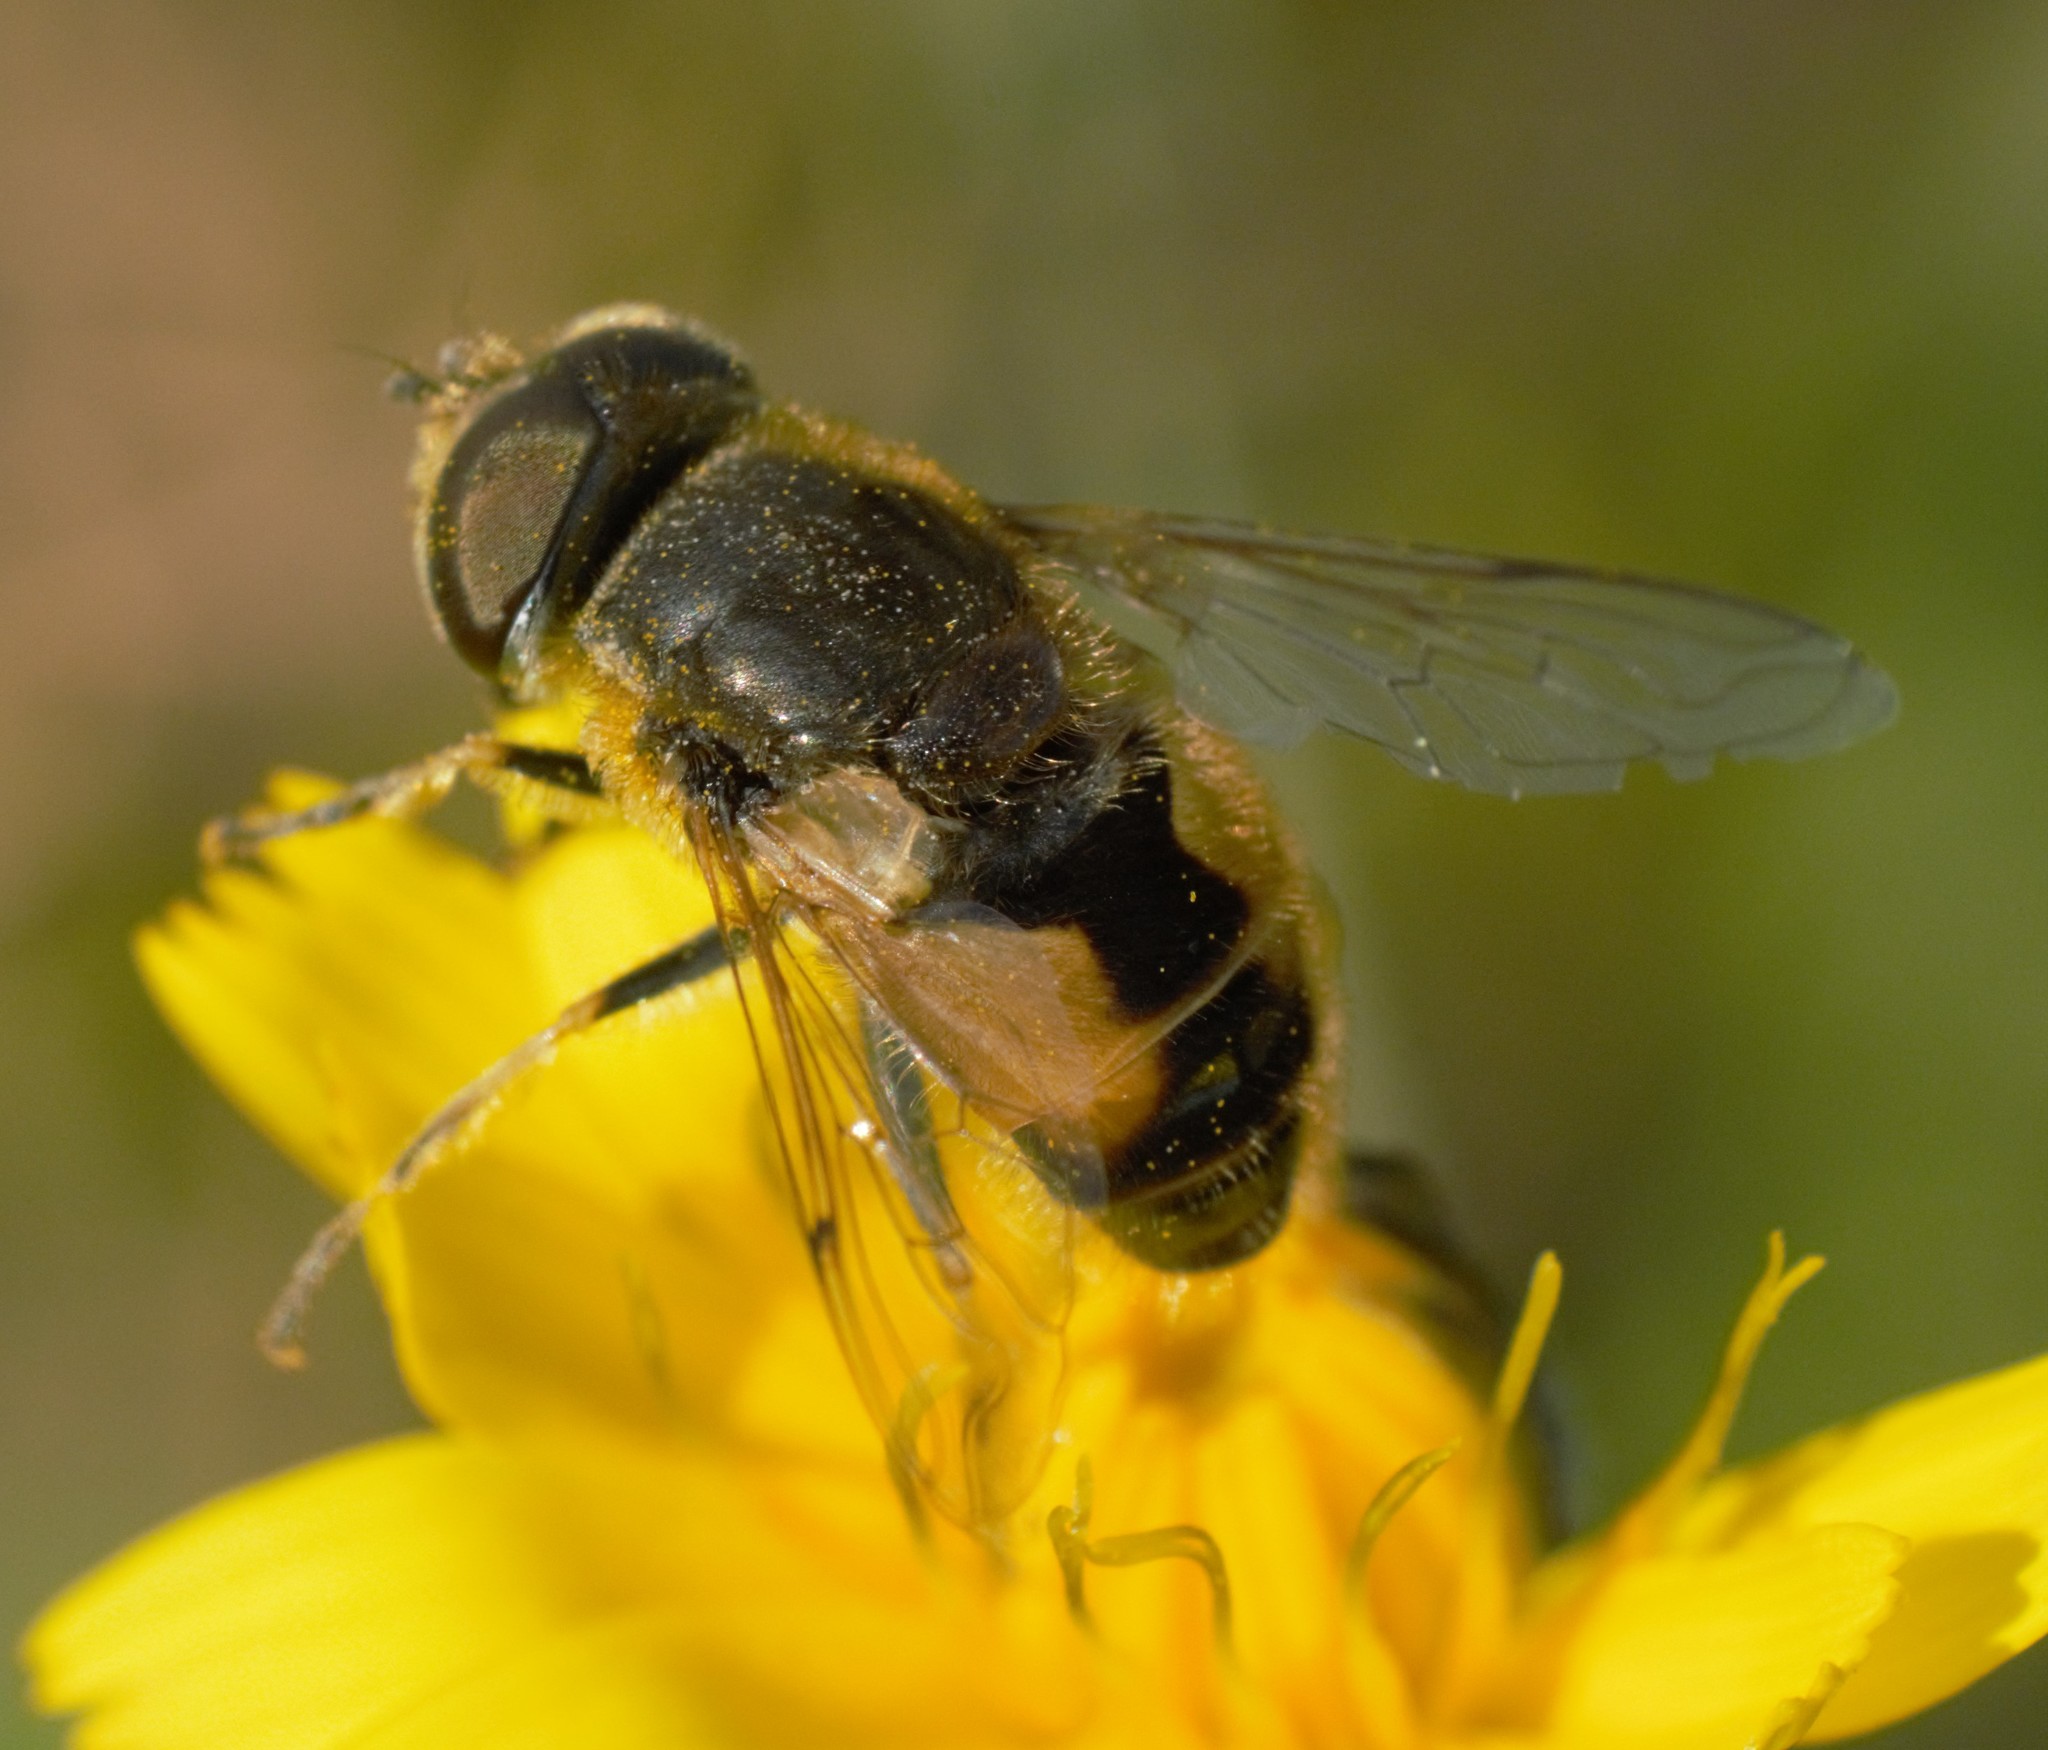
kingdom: Animalia
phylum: Arthropoda
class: Insecta
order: Diptera
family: Syrphidae
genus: Eristalis
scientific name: Eristalis arbustorum
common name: Hover fly
